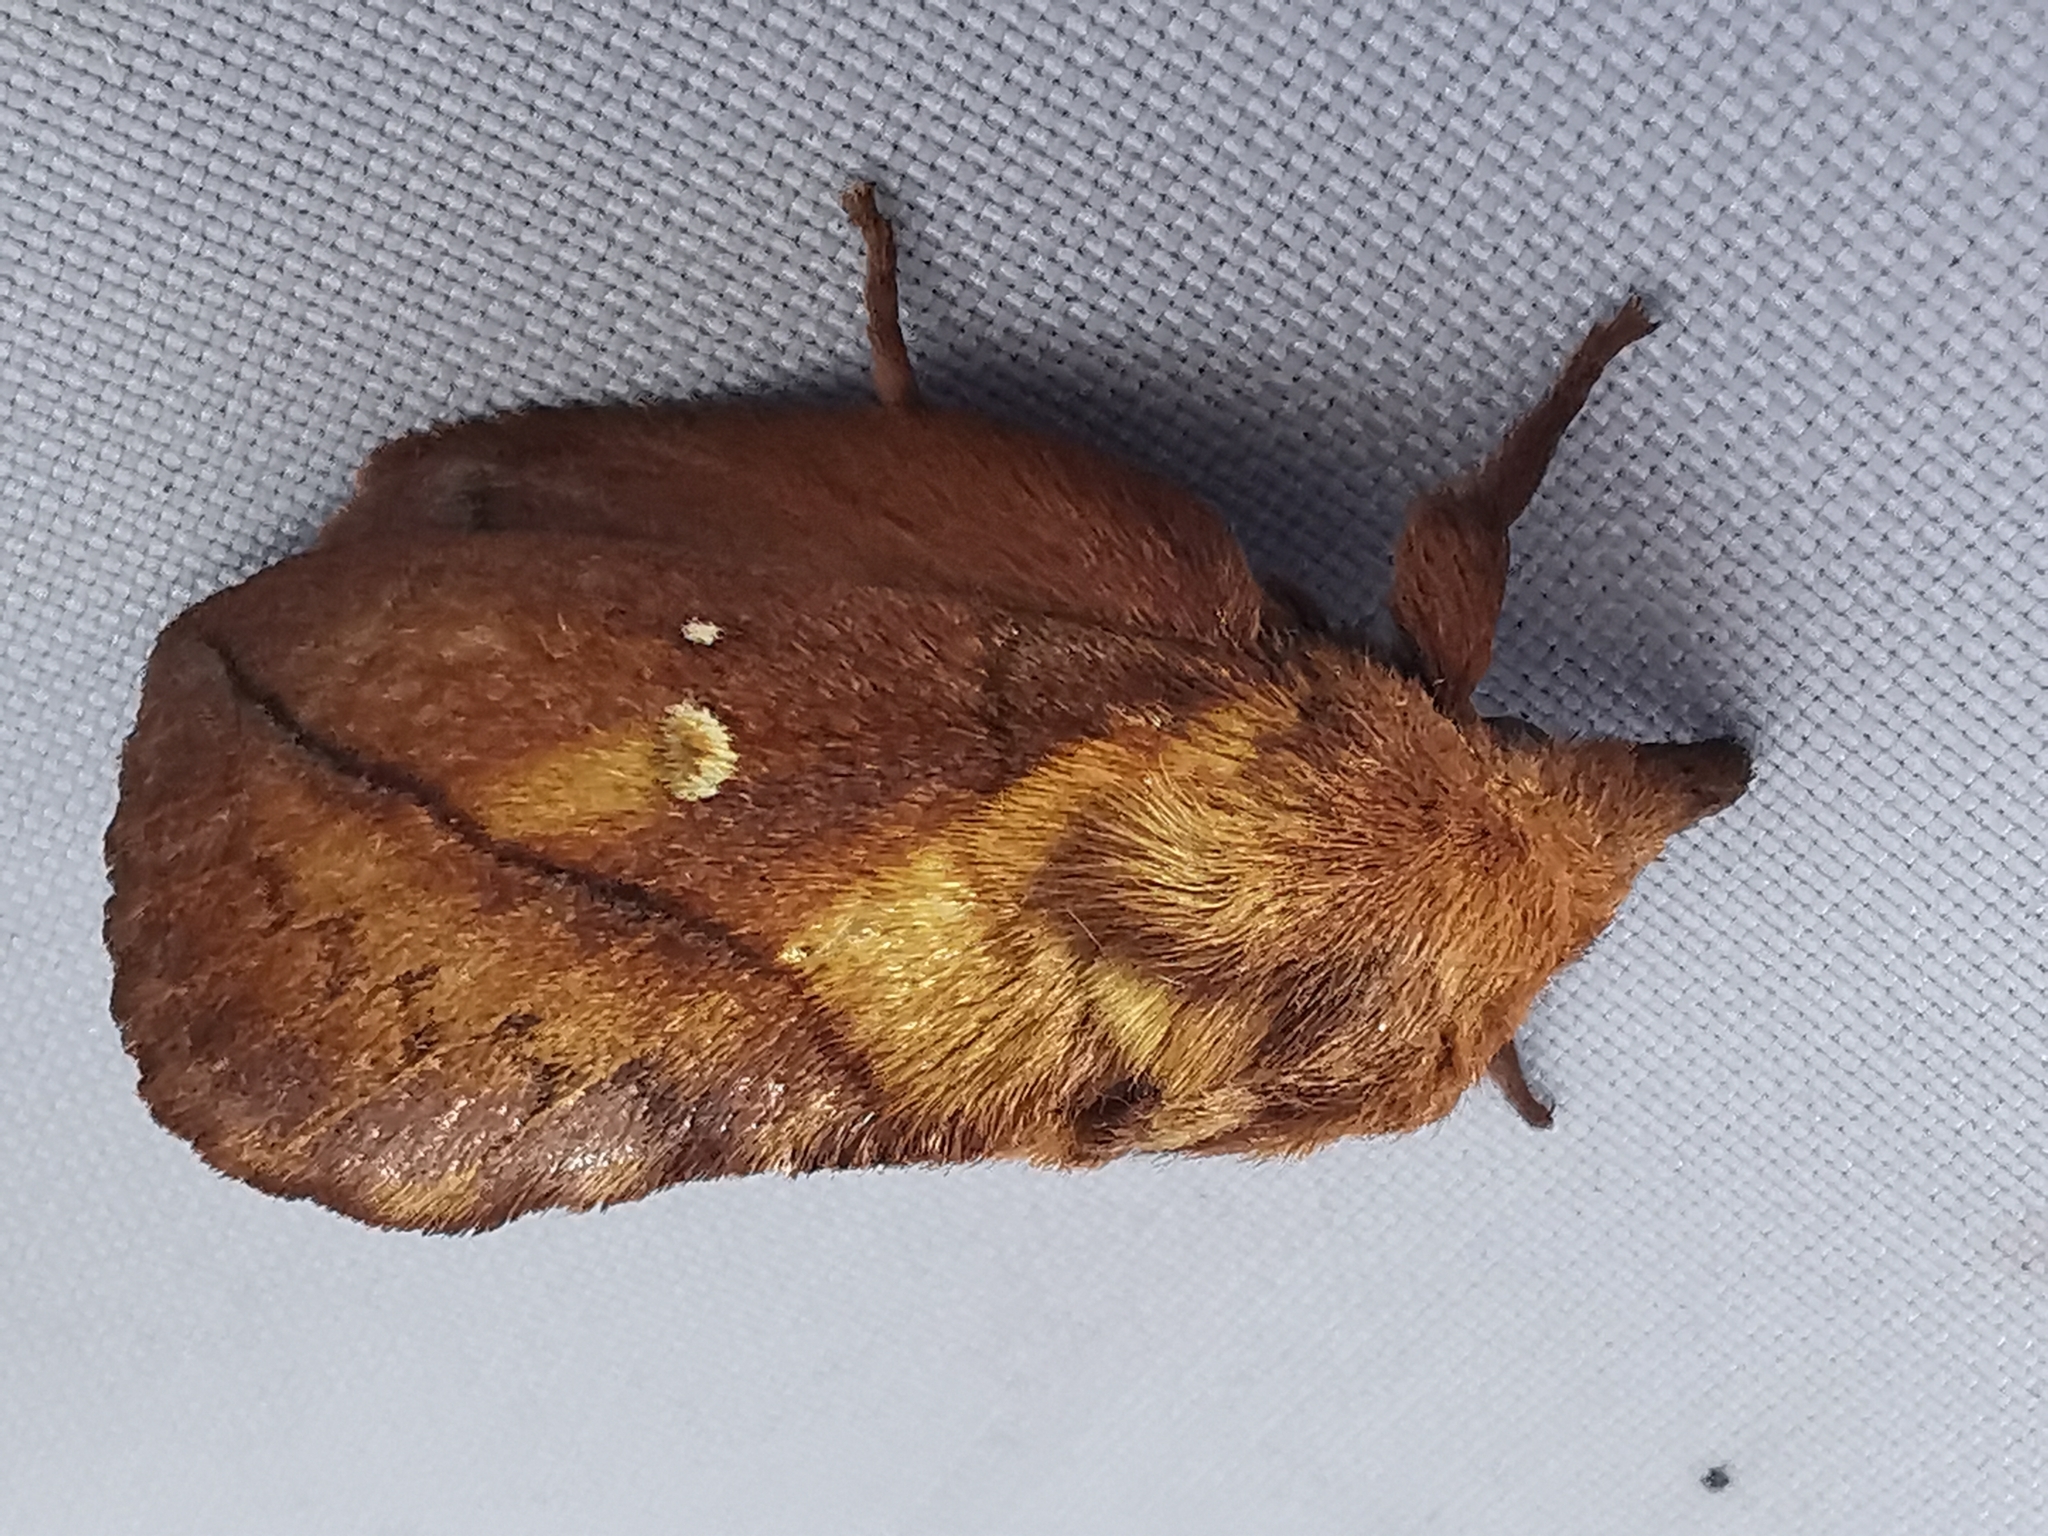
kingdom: Animalia
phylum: Arthropoda
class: Insecta
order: Lepidoptera
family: Lasiocampidae
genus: Euthrix
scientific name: Euthrix potatoria
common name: Drinker
